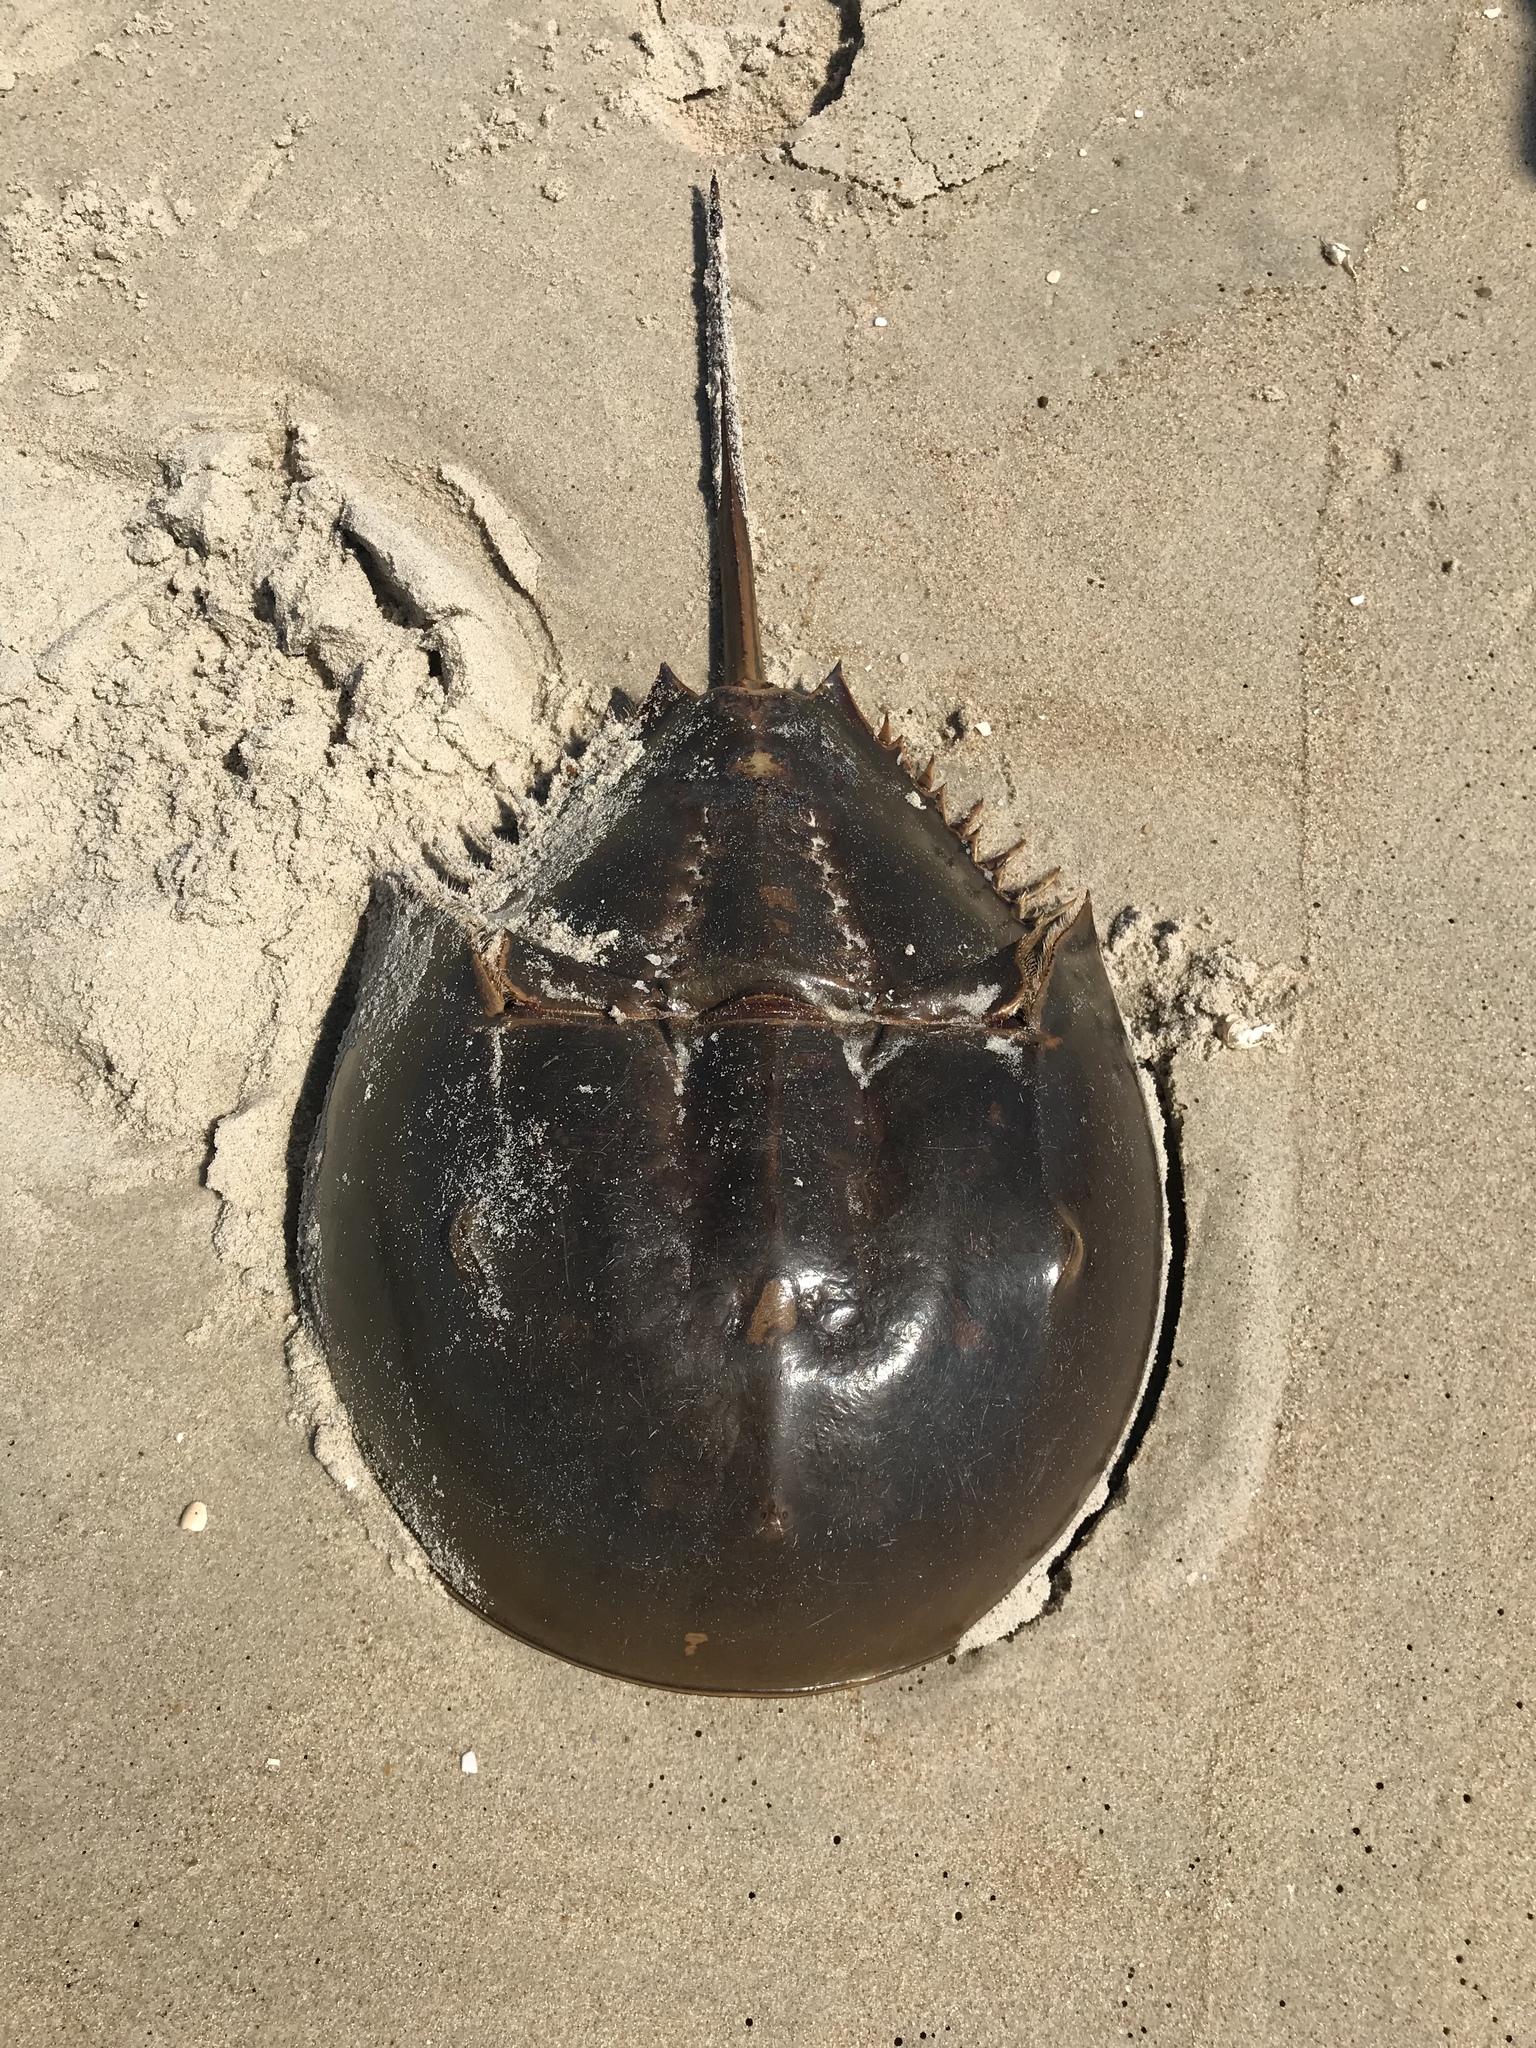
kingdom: Animalia
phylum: Arthropoda
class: Merostomata
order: Xiphosurida
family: Limulidae
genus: Limulus
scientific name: Limulus polyphemus
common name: Horseshoe crab
